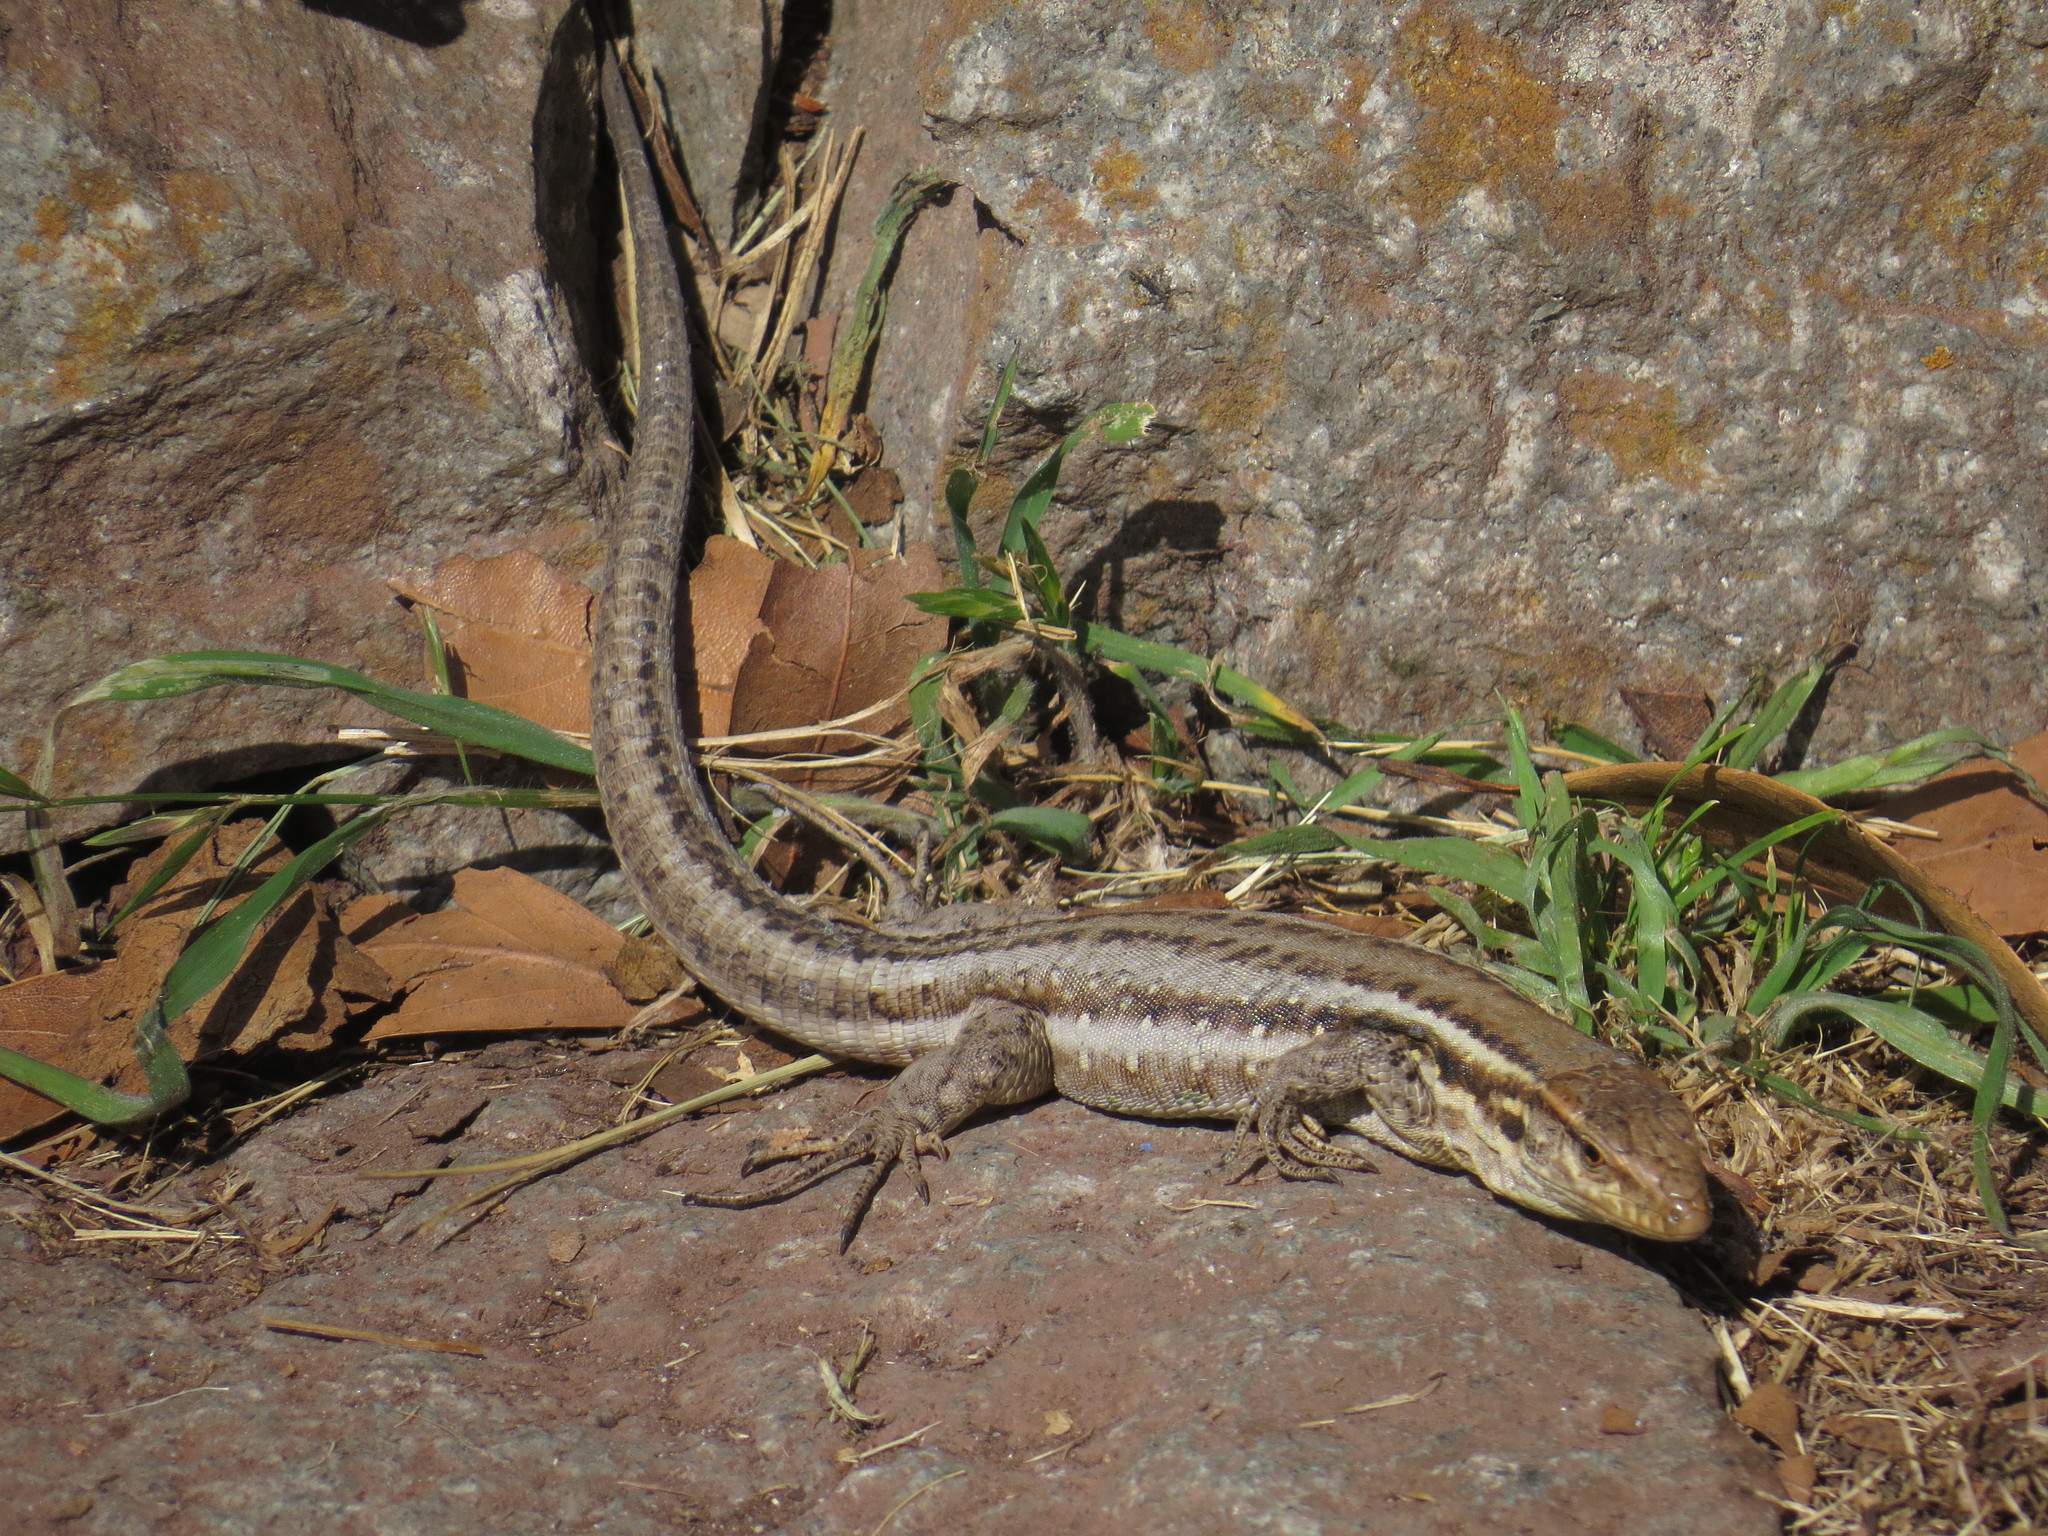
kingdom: Animalia
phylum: Chordata
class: Squamata
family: Lacertidae
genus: Gallotia
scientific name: Gallotia galloti
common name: Gallot's lizard
